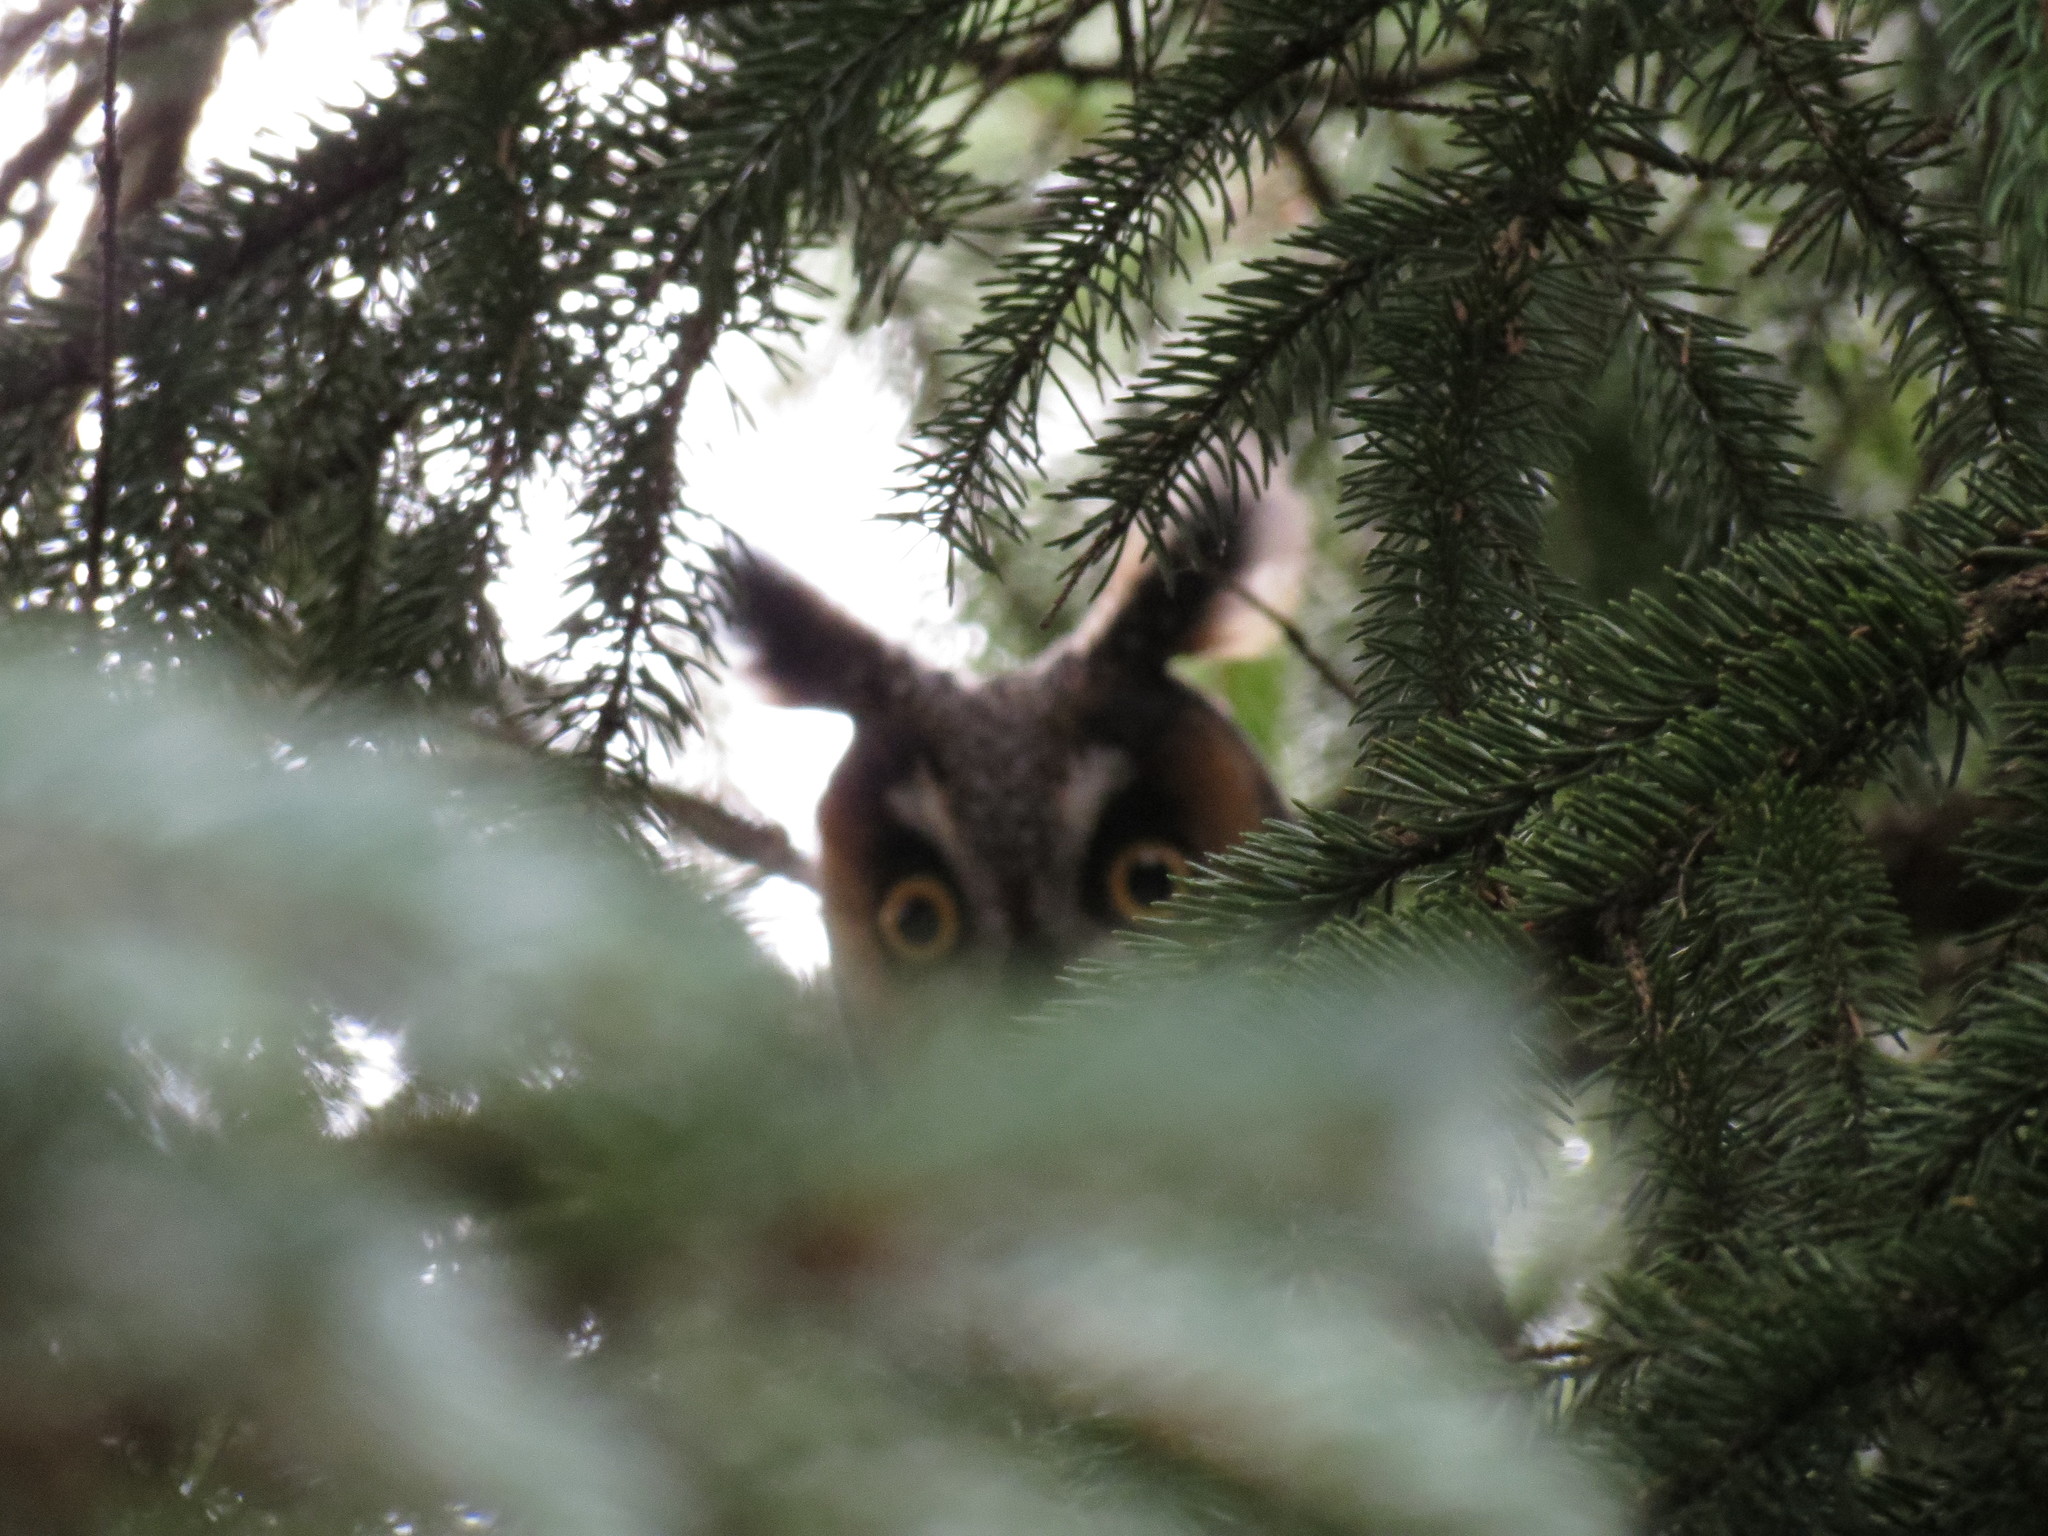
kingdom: Animalia
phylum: Chordata
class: Aves
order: Strigiformes
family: Strigidae
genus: Asio
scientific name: Asio otus
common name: Long-eared owl
